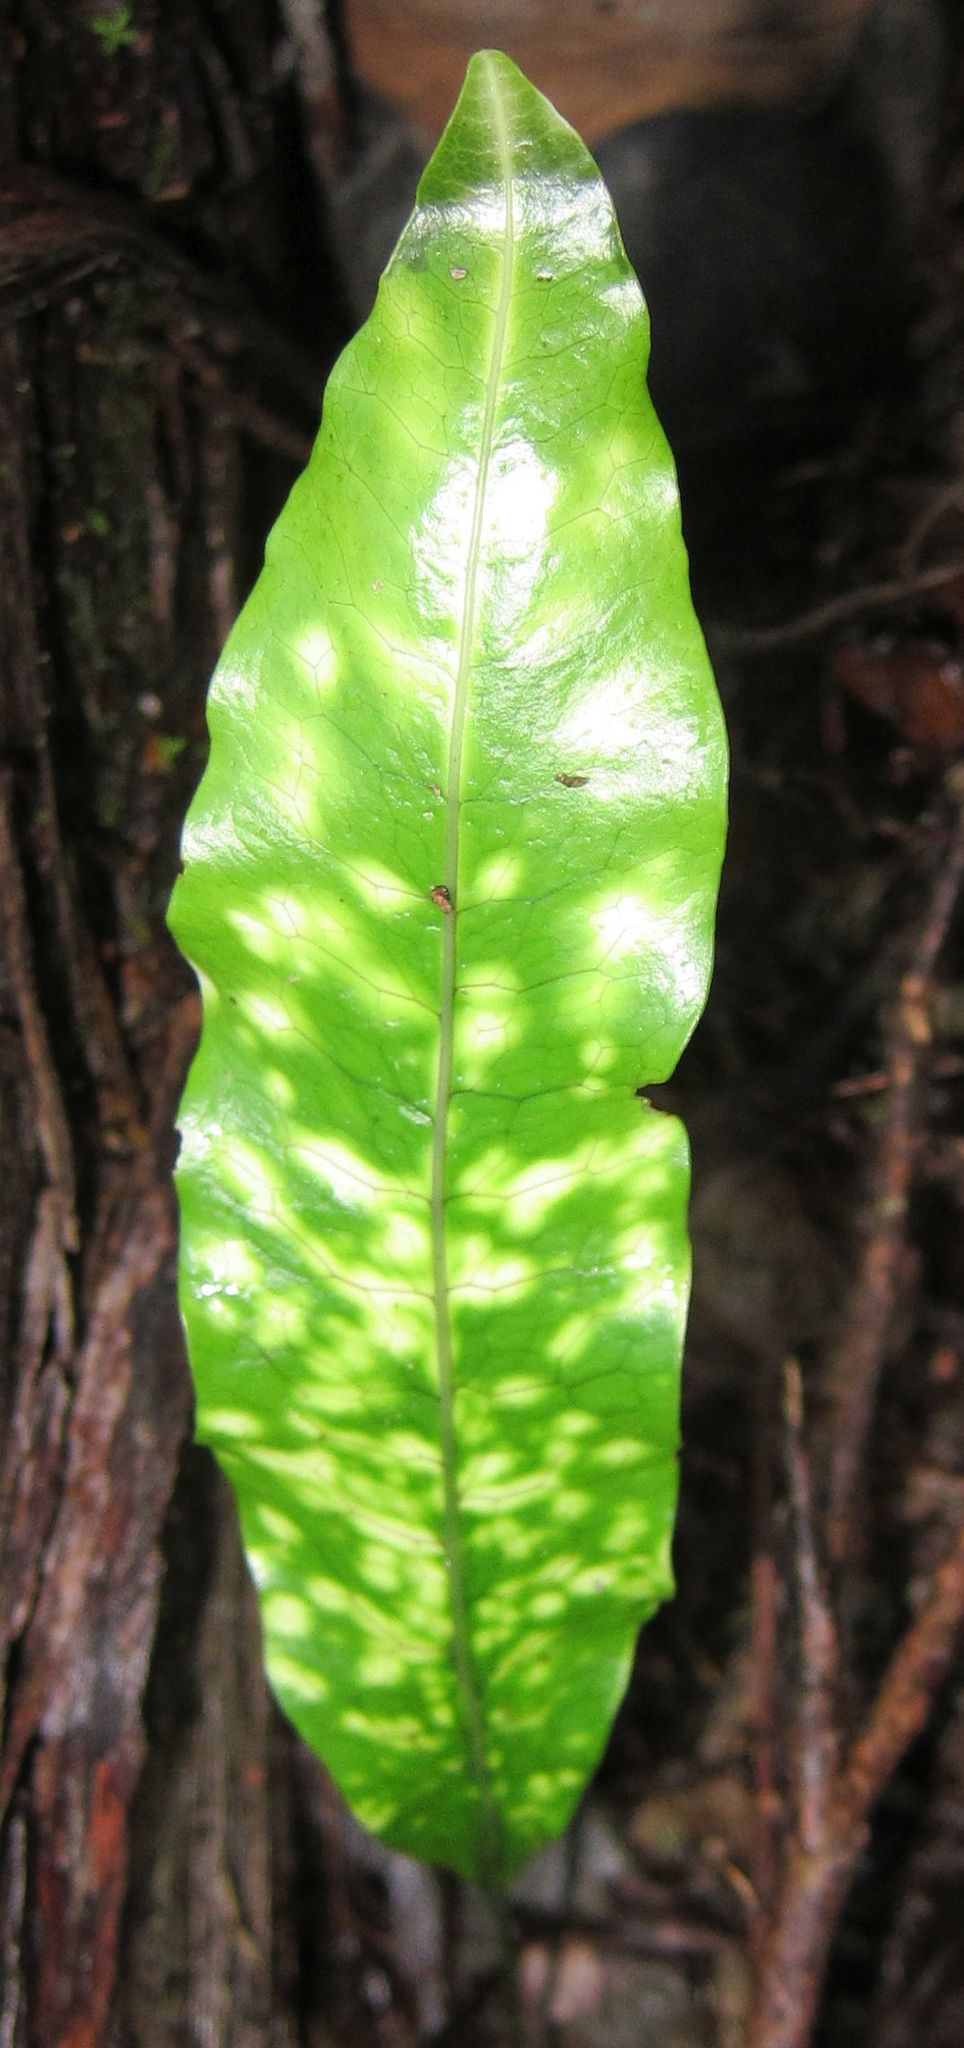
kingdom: Plantae
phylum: Tracheophyta
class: Polypodiopsida
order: Polypodiales
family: Polypodiaceae
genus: Lecanopteris
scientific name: Lecanopteris pustulata
